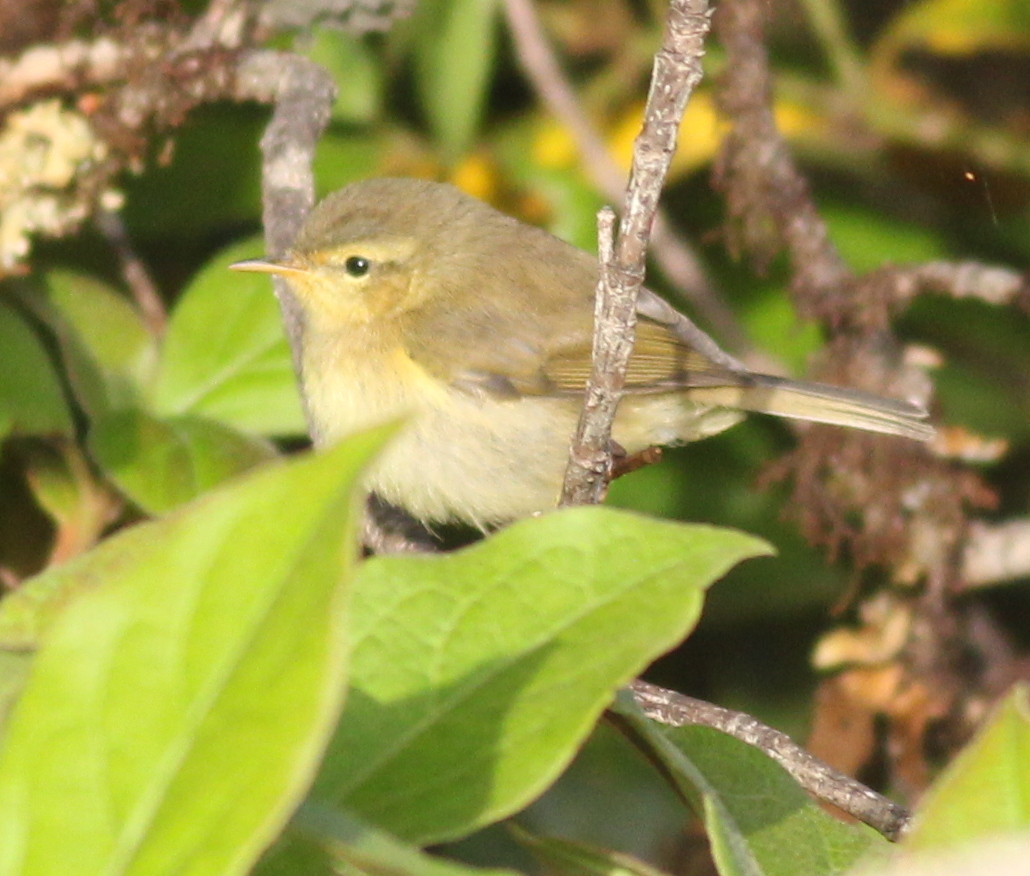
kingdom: Animalia
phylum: Chordata
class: Aves
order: Passeriformes
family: Phylloscopidae
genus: Phylloscopus
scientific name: Phylloscopus canariensis
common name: Canary islands chiffchaff
